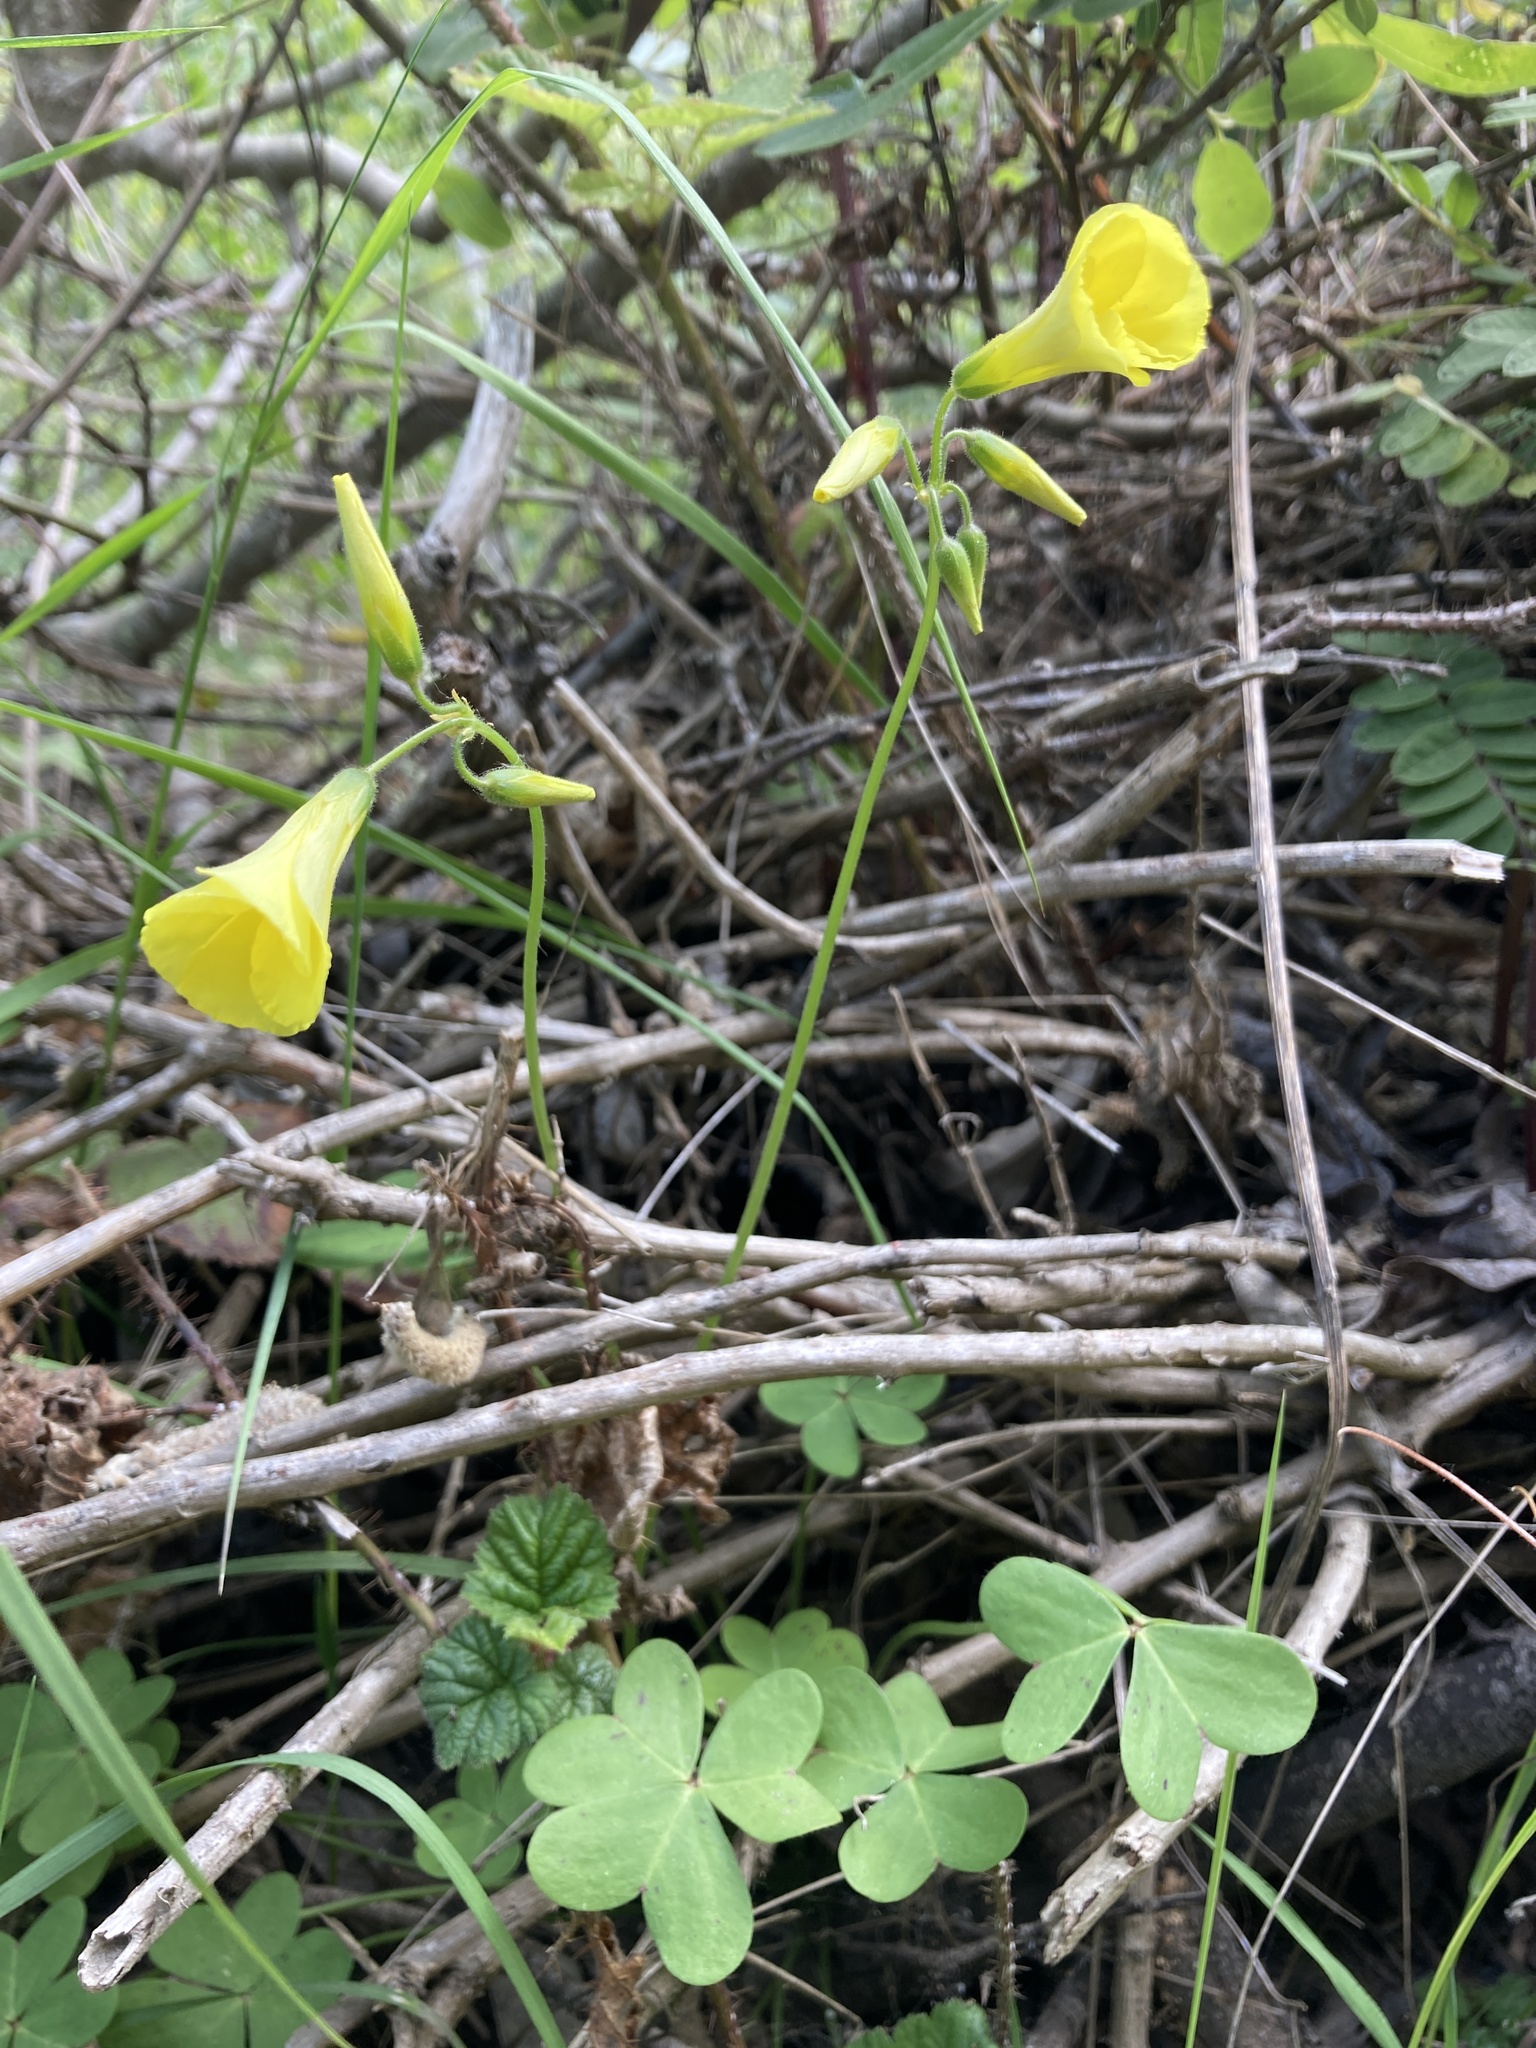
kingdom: Plantae
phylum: Tracheophyta
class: Magnoliopsida
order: Oxalidales
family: Oxalidaceae
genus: Oxalis
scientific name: Oxalis pes-caprae
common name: Bermuda-buttercup
